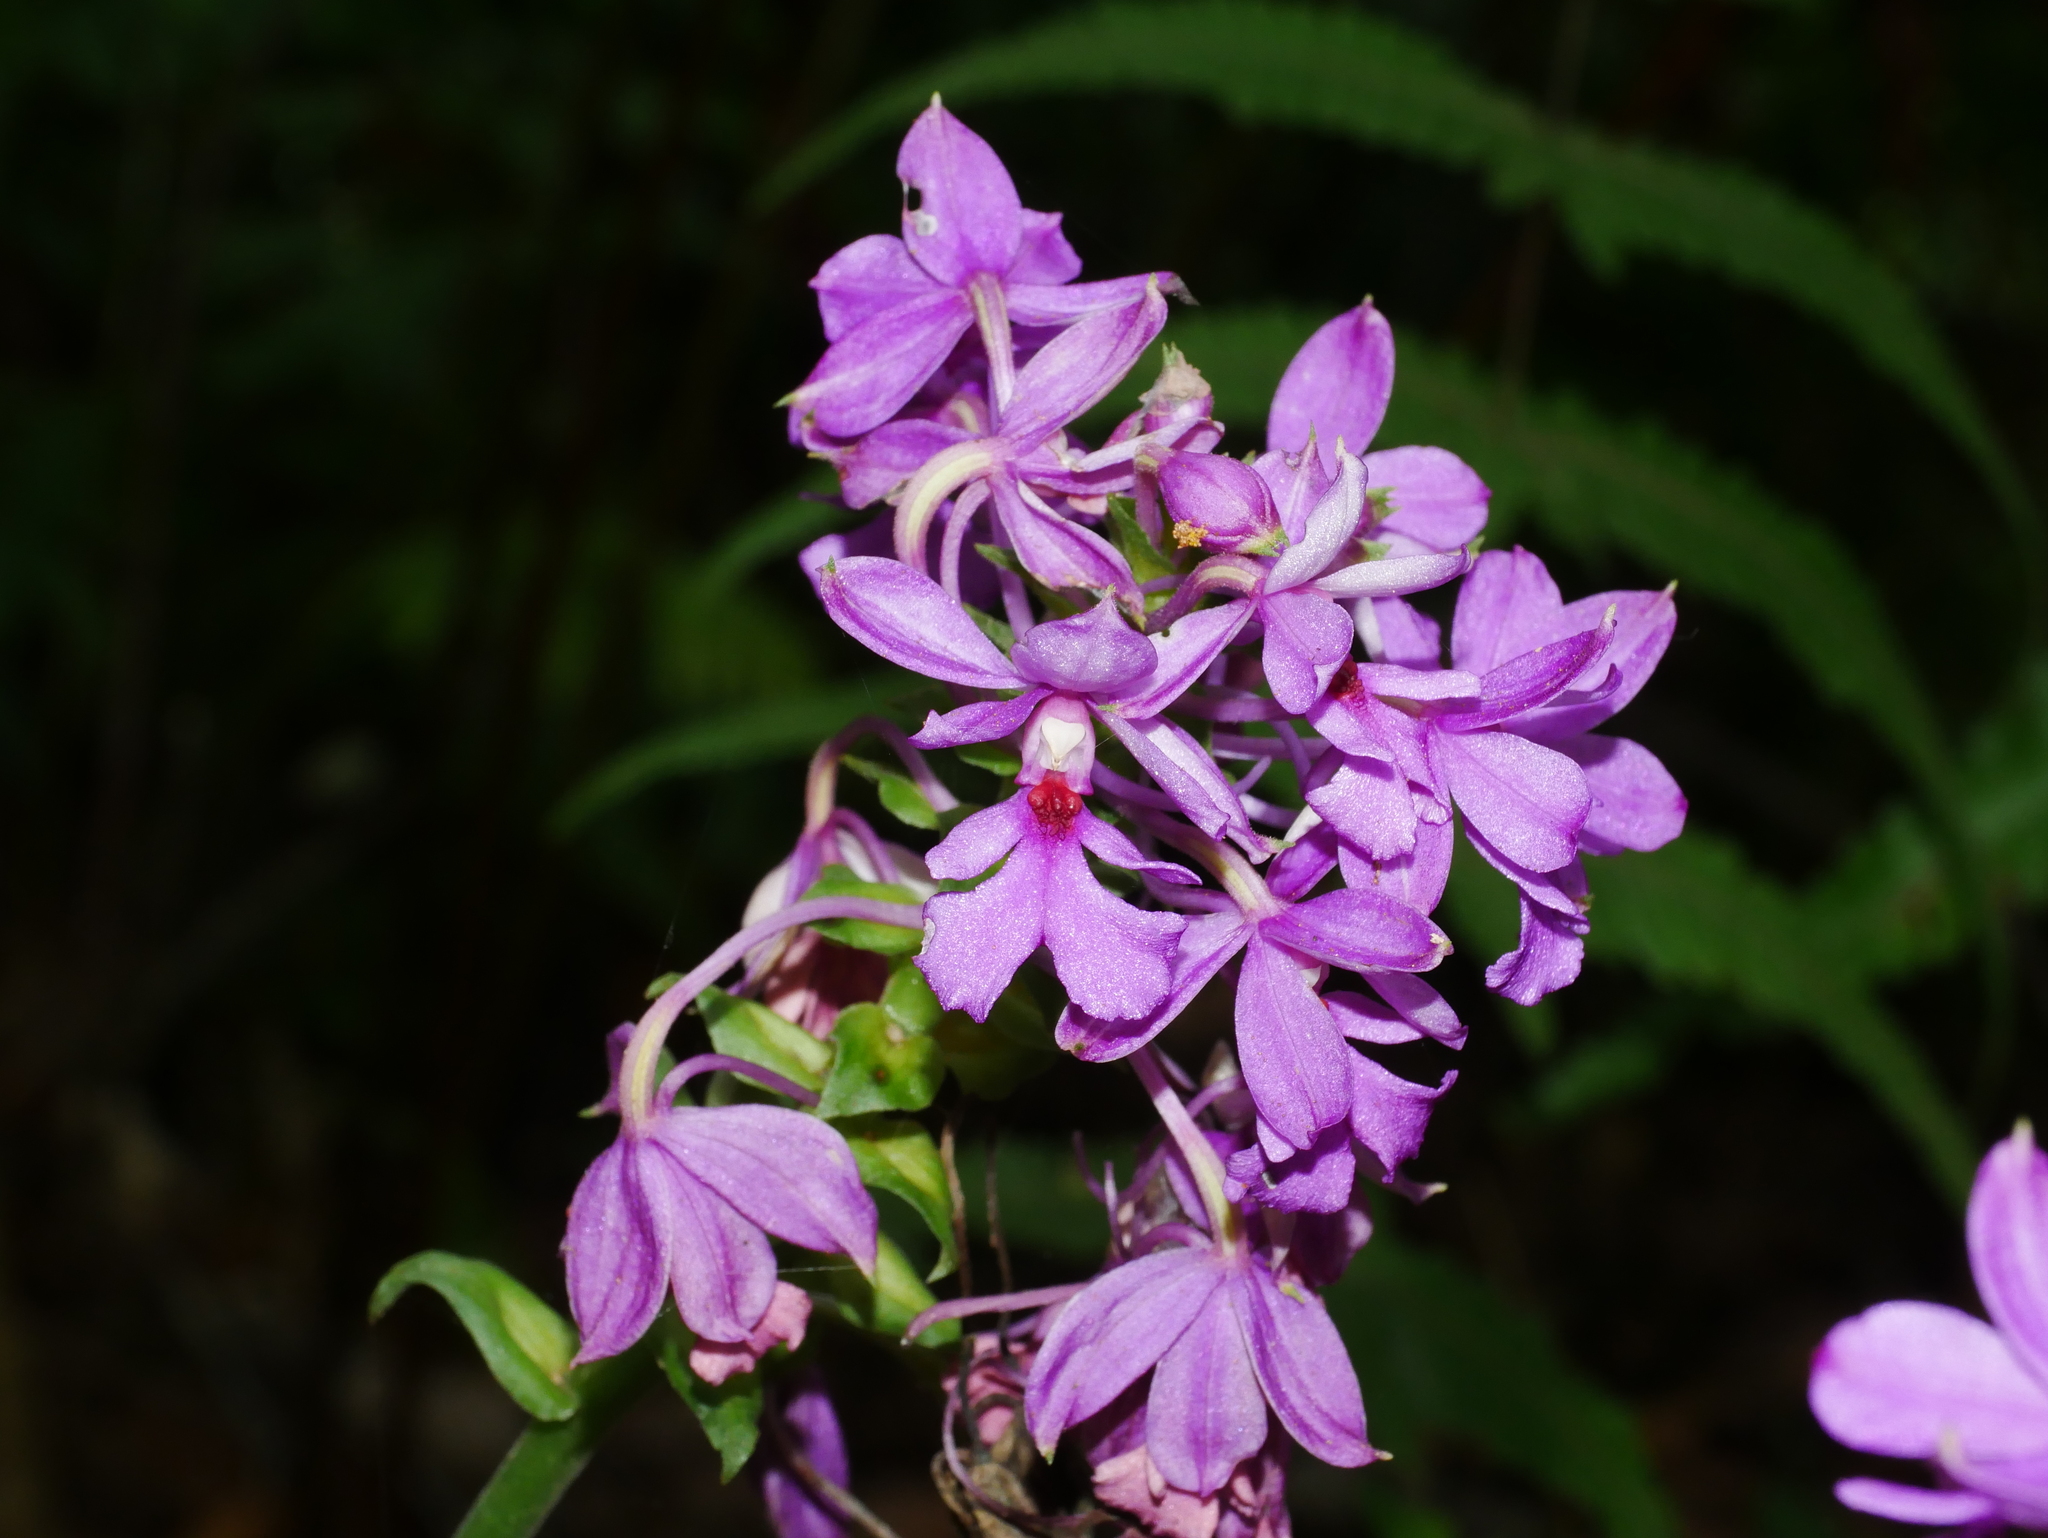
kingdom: Plantae
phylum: Tracheophyta
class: Liliopsida
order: Asparagales
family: Orchidaceae
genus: Calanthe
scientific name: Calanthe dominyi
